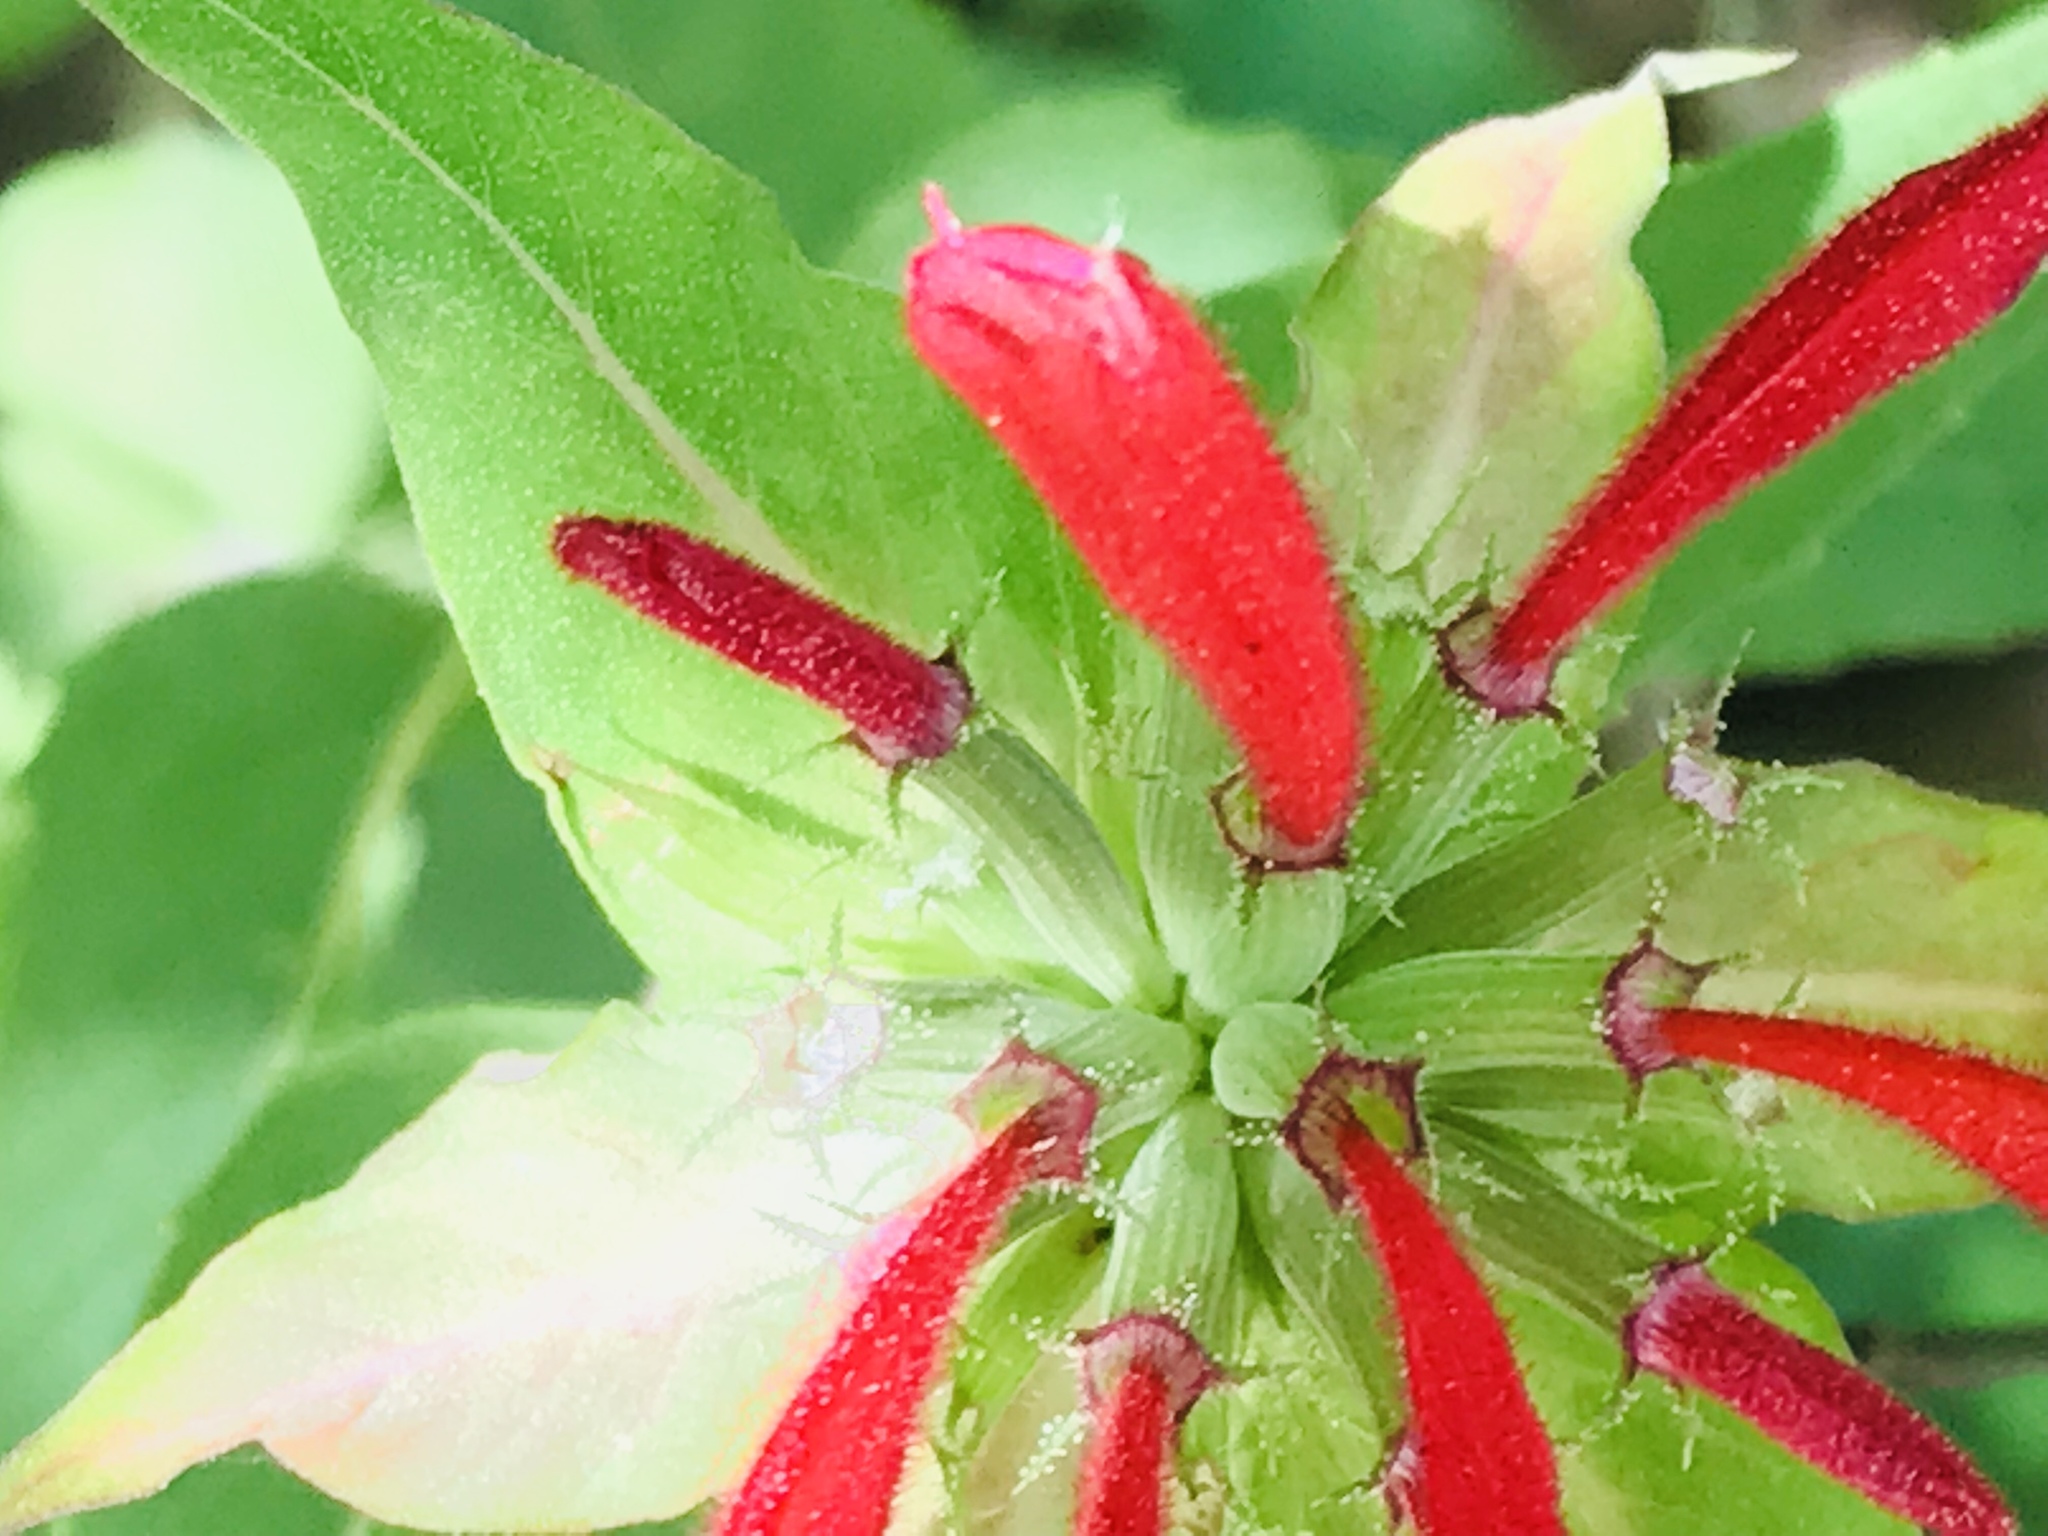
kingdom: Plantae
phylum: Tracheophyta
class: Magnoliopsida
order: Lamiales
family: Lamiaceae
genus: Monarda
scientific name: Monarda pringlei
